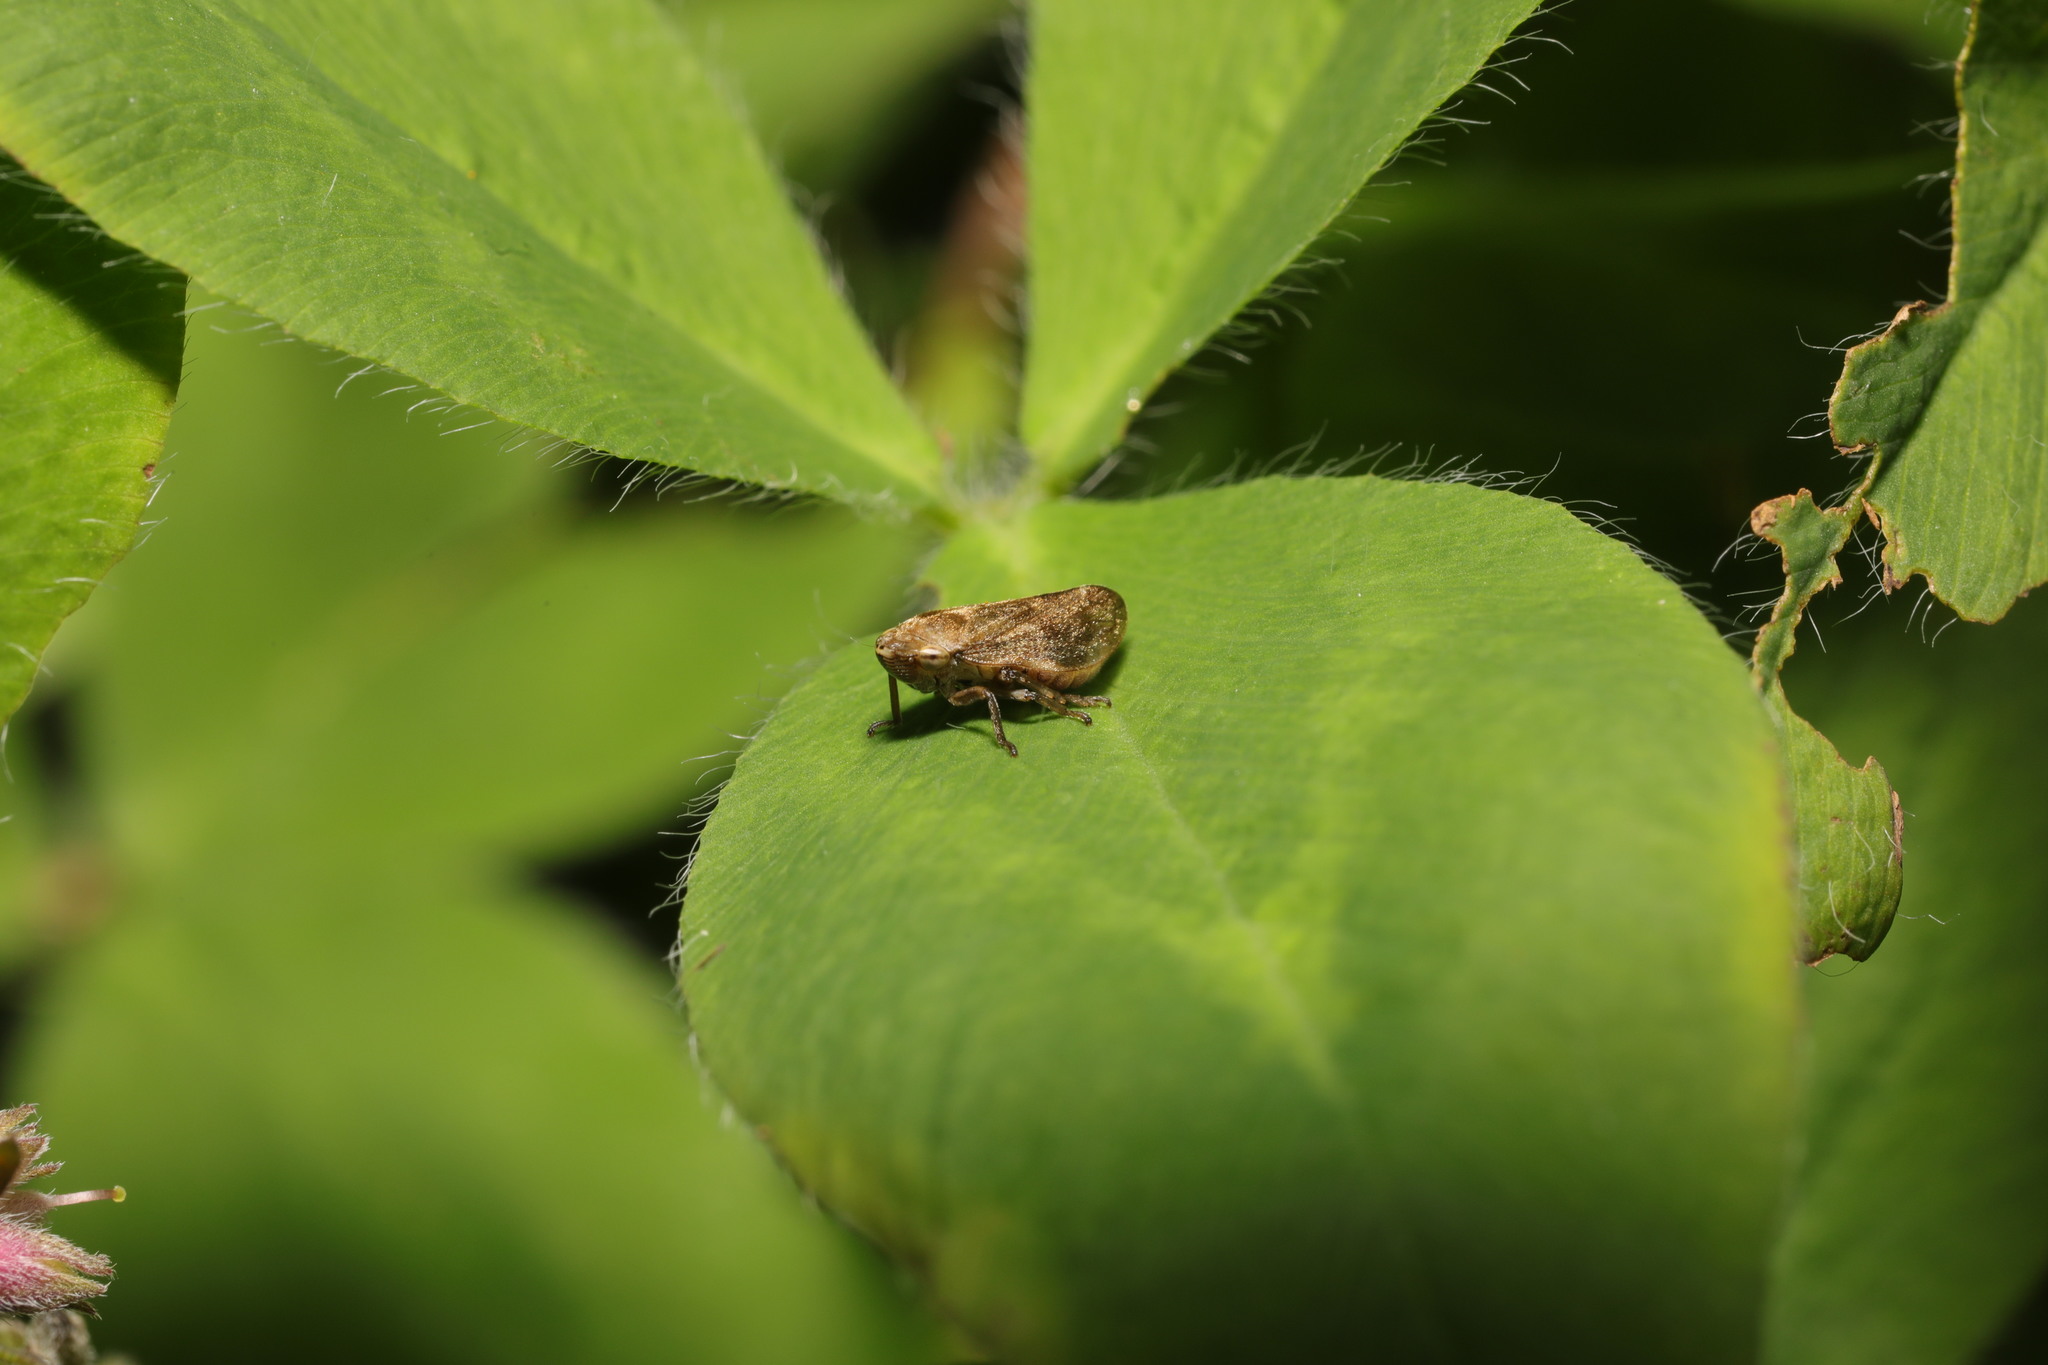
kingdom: Animalia
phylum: Arthropoda
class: Insecta
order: Hemiptera
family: Aphrophoridae
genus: Philaenus
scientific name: Philaenus spumarius
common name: Meadow spittlebug
